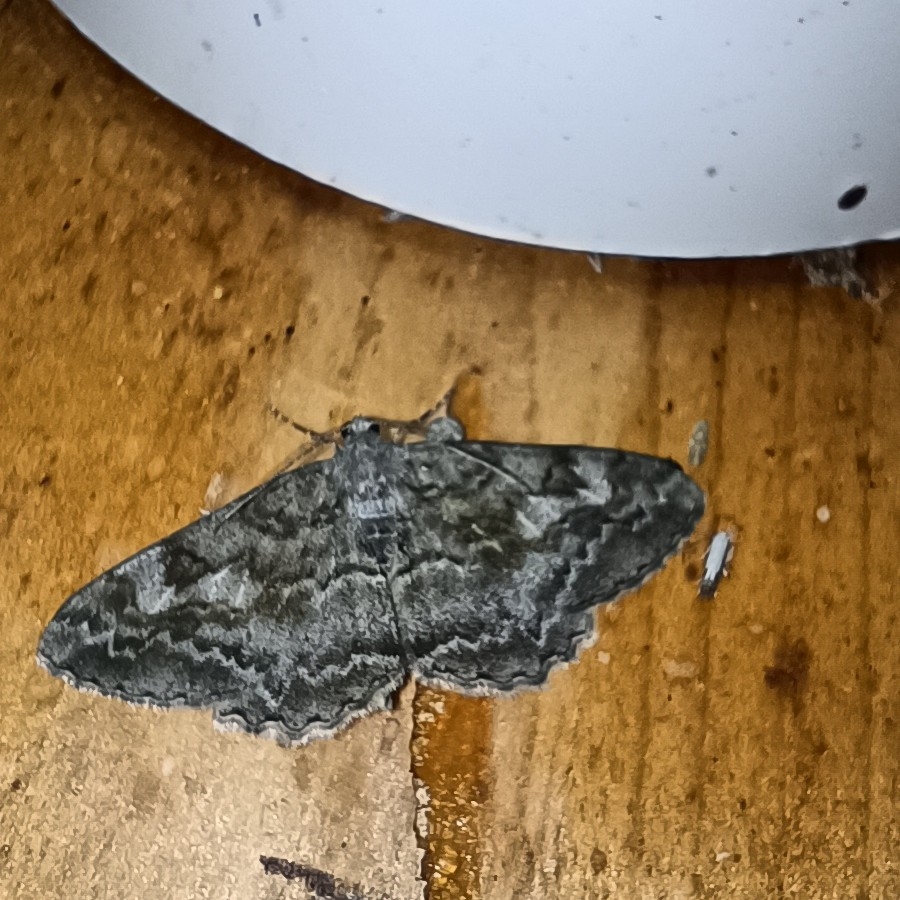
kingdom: Animalia
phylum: Arthropoda
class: Insecta
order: Lepidoptera
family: Geometridae
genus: Alcis
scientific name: Alcis repandata
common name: Mottled beauty
